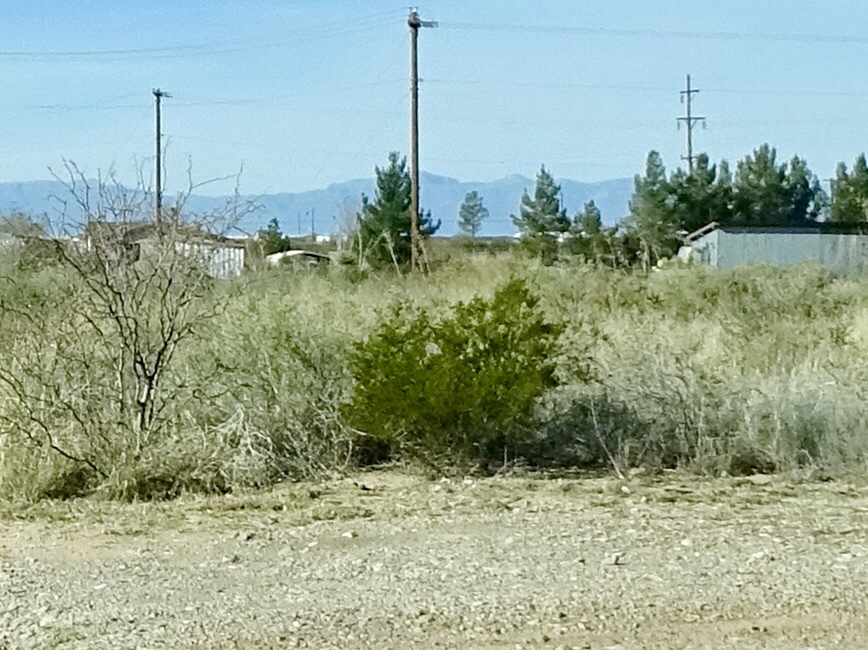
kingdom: Plantae
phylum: Tracheophyta
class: Magnoliopsida
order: Zygophyllales
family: Zygophyllaceae
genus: Larrea
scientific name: Larrea tridentata
